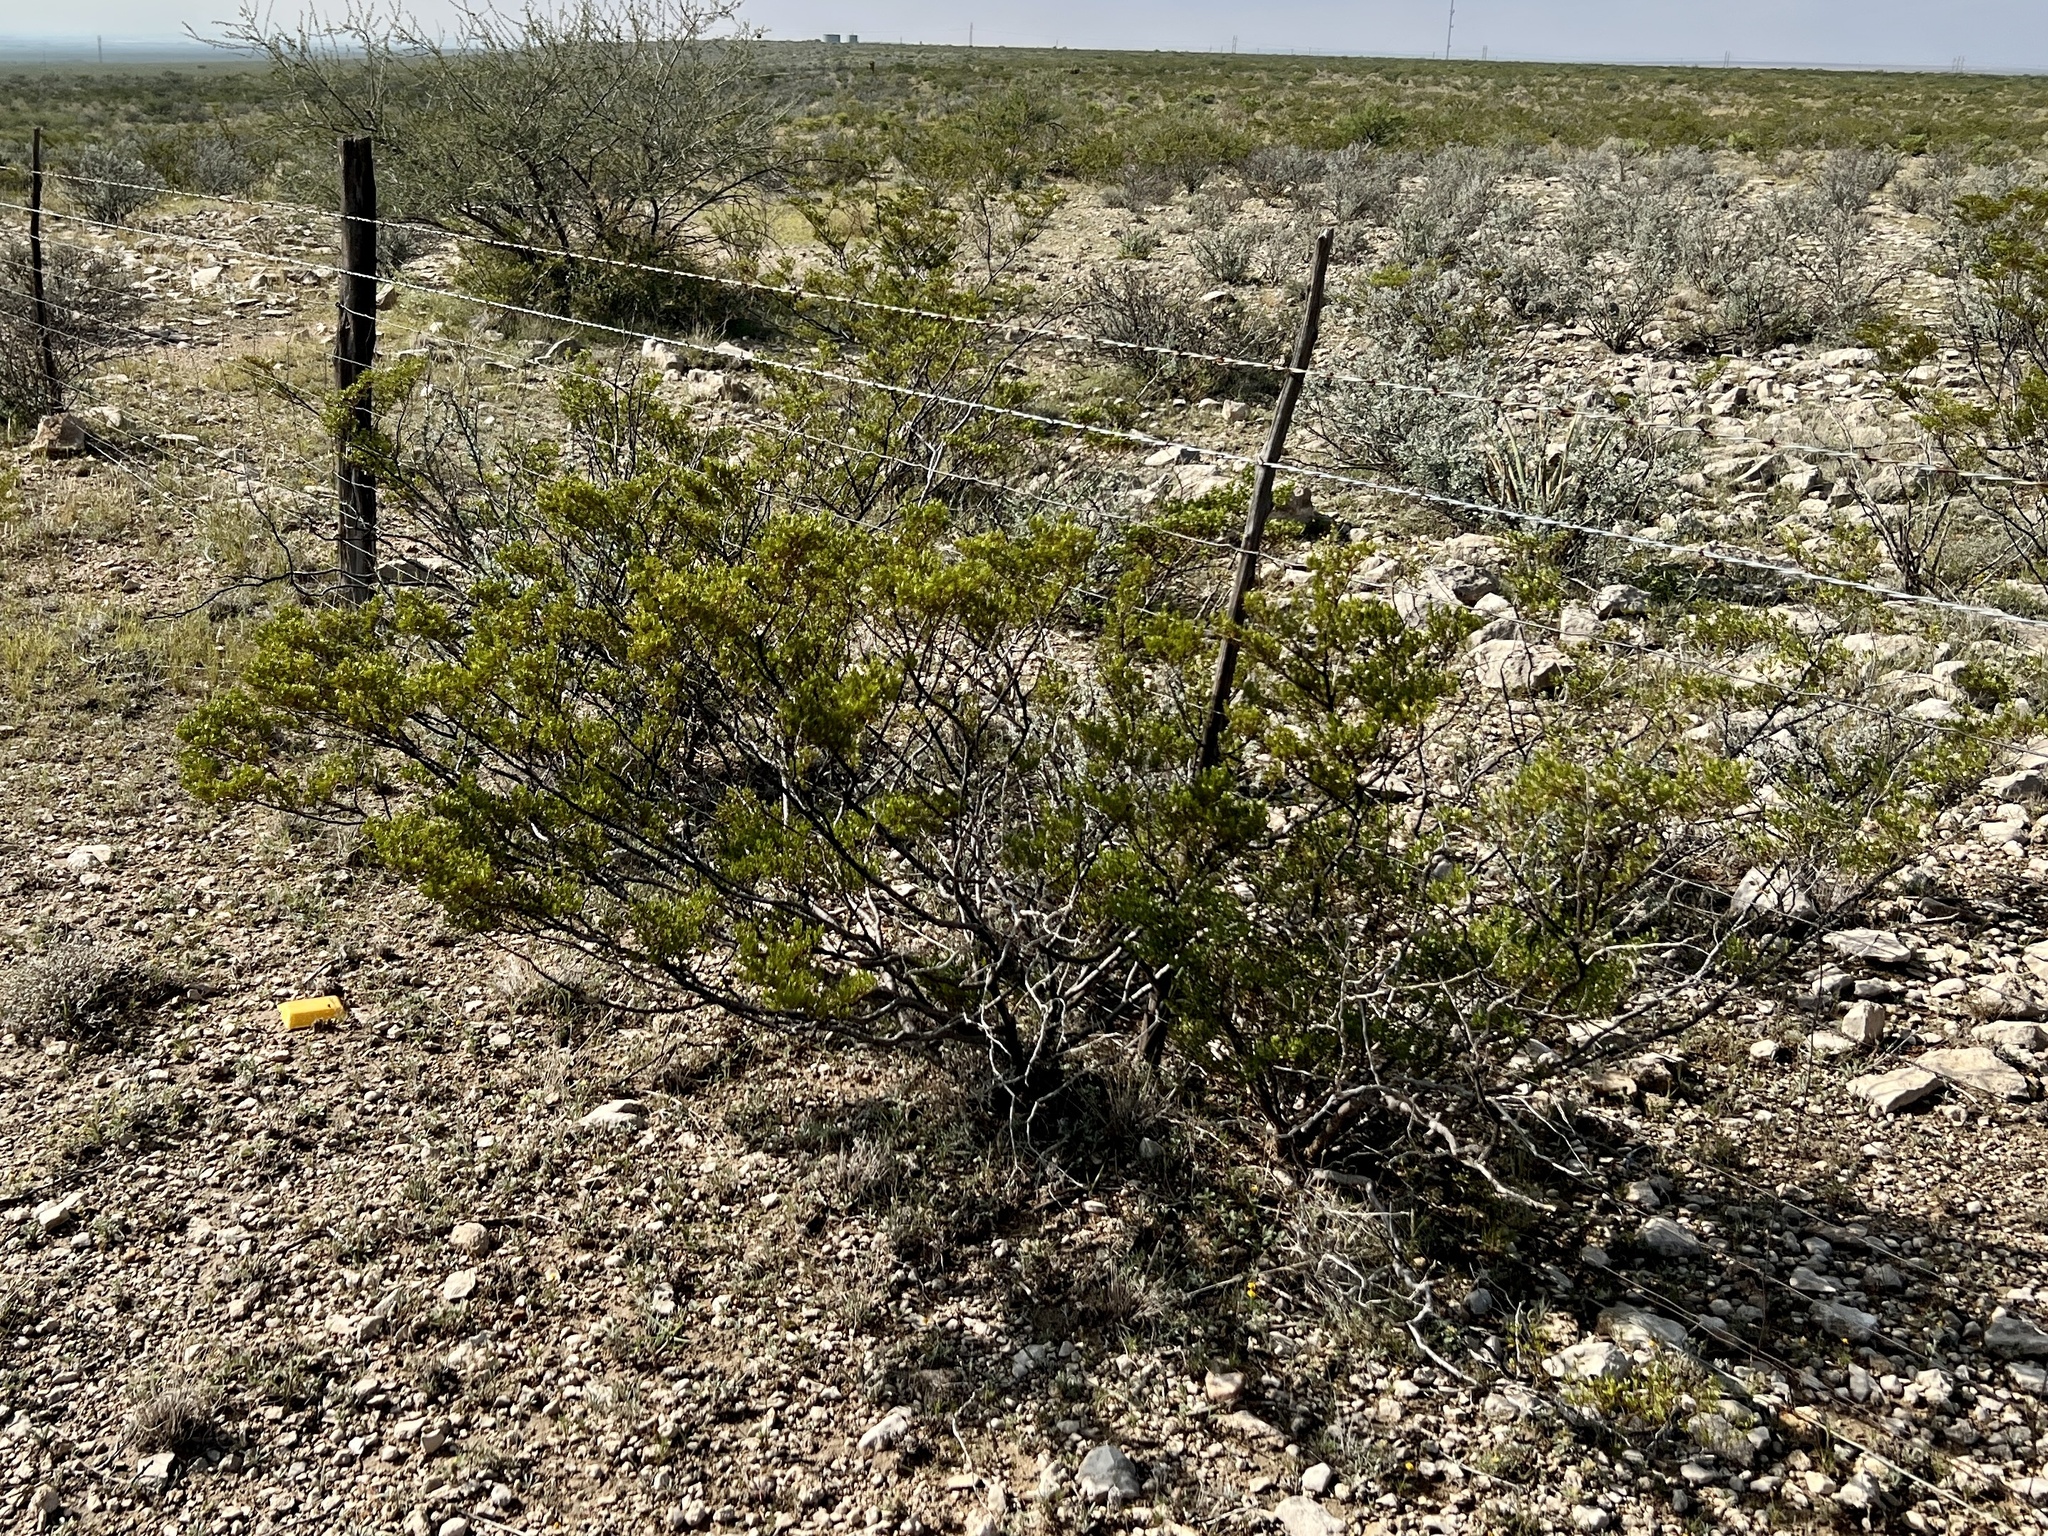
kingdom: Plantae
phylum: Tracheophyta
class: Magnoliopsida
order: Zygophyllales
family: Zygophyllaceae
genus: Larrea
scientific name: Larrea tridentata
